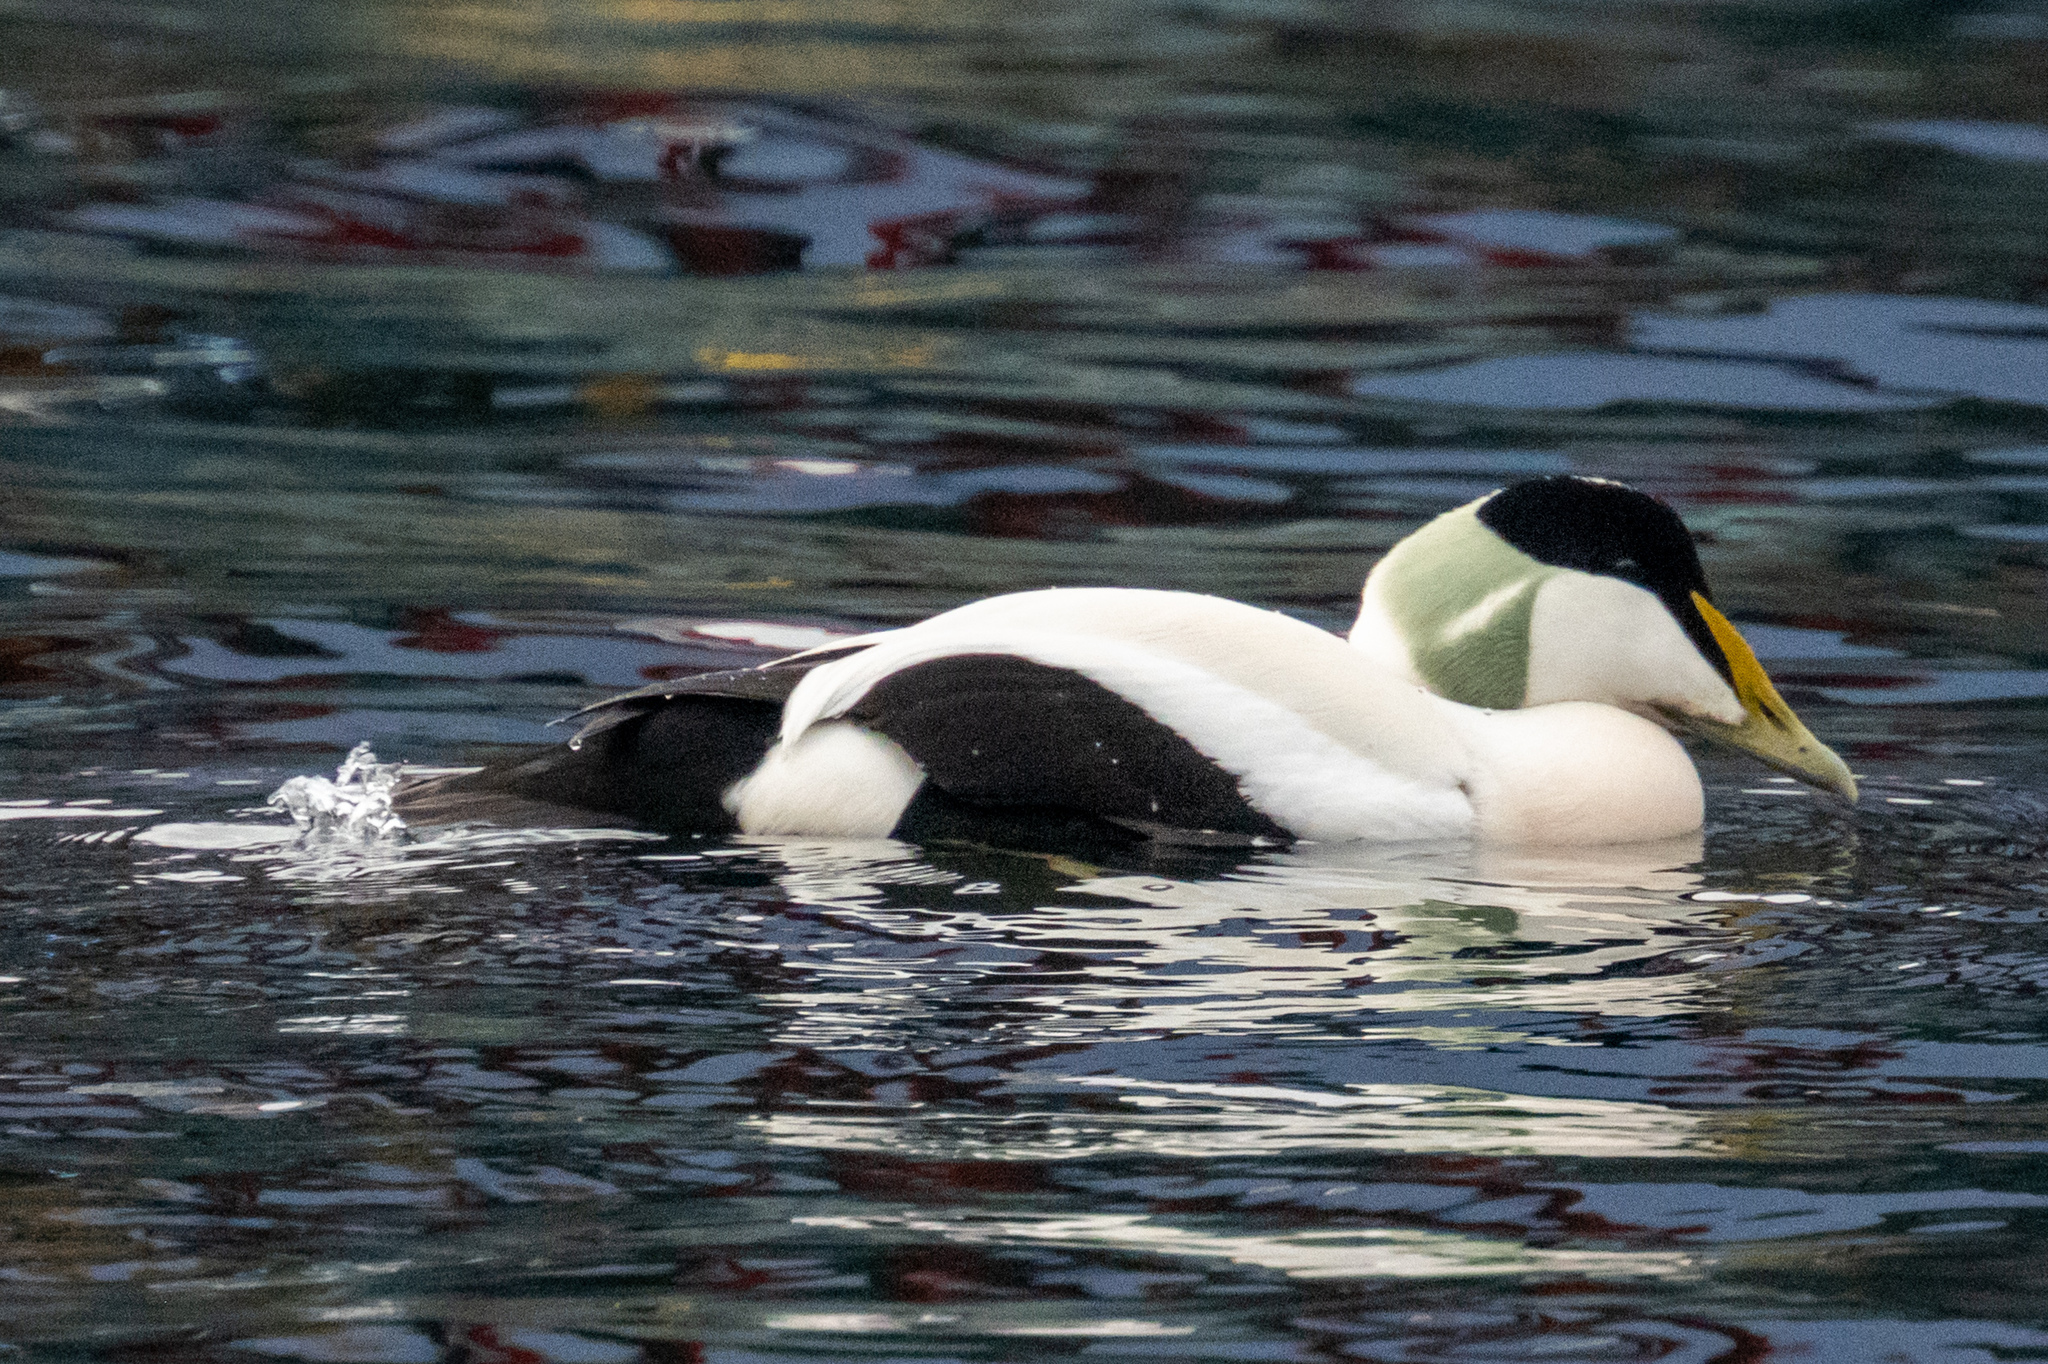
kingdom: Animalia
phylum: Chordata
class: Aves
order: Anseriformes
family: Anatidae
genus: Somateria
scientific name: Somateria mollissima
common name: Common eider
